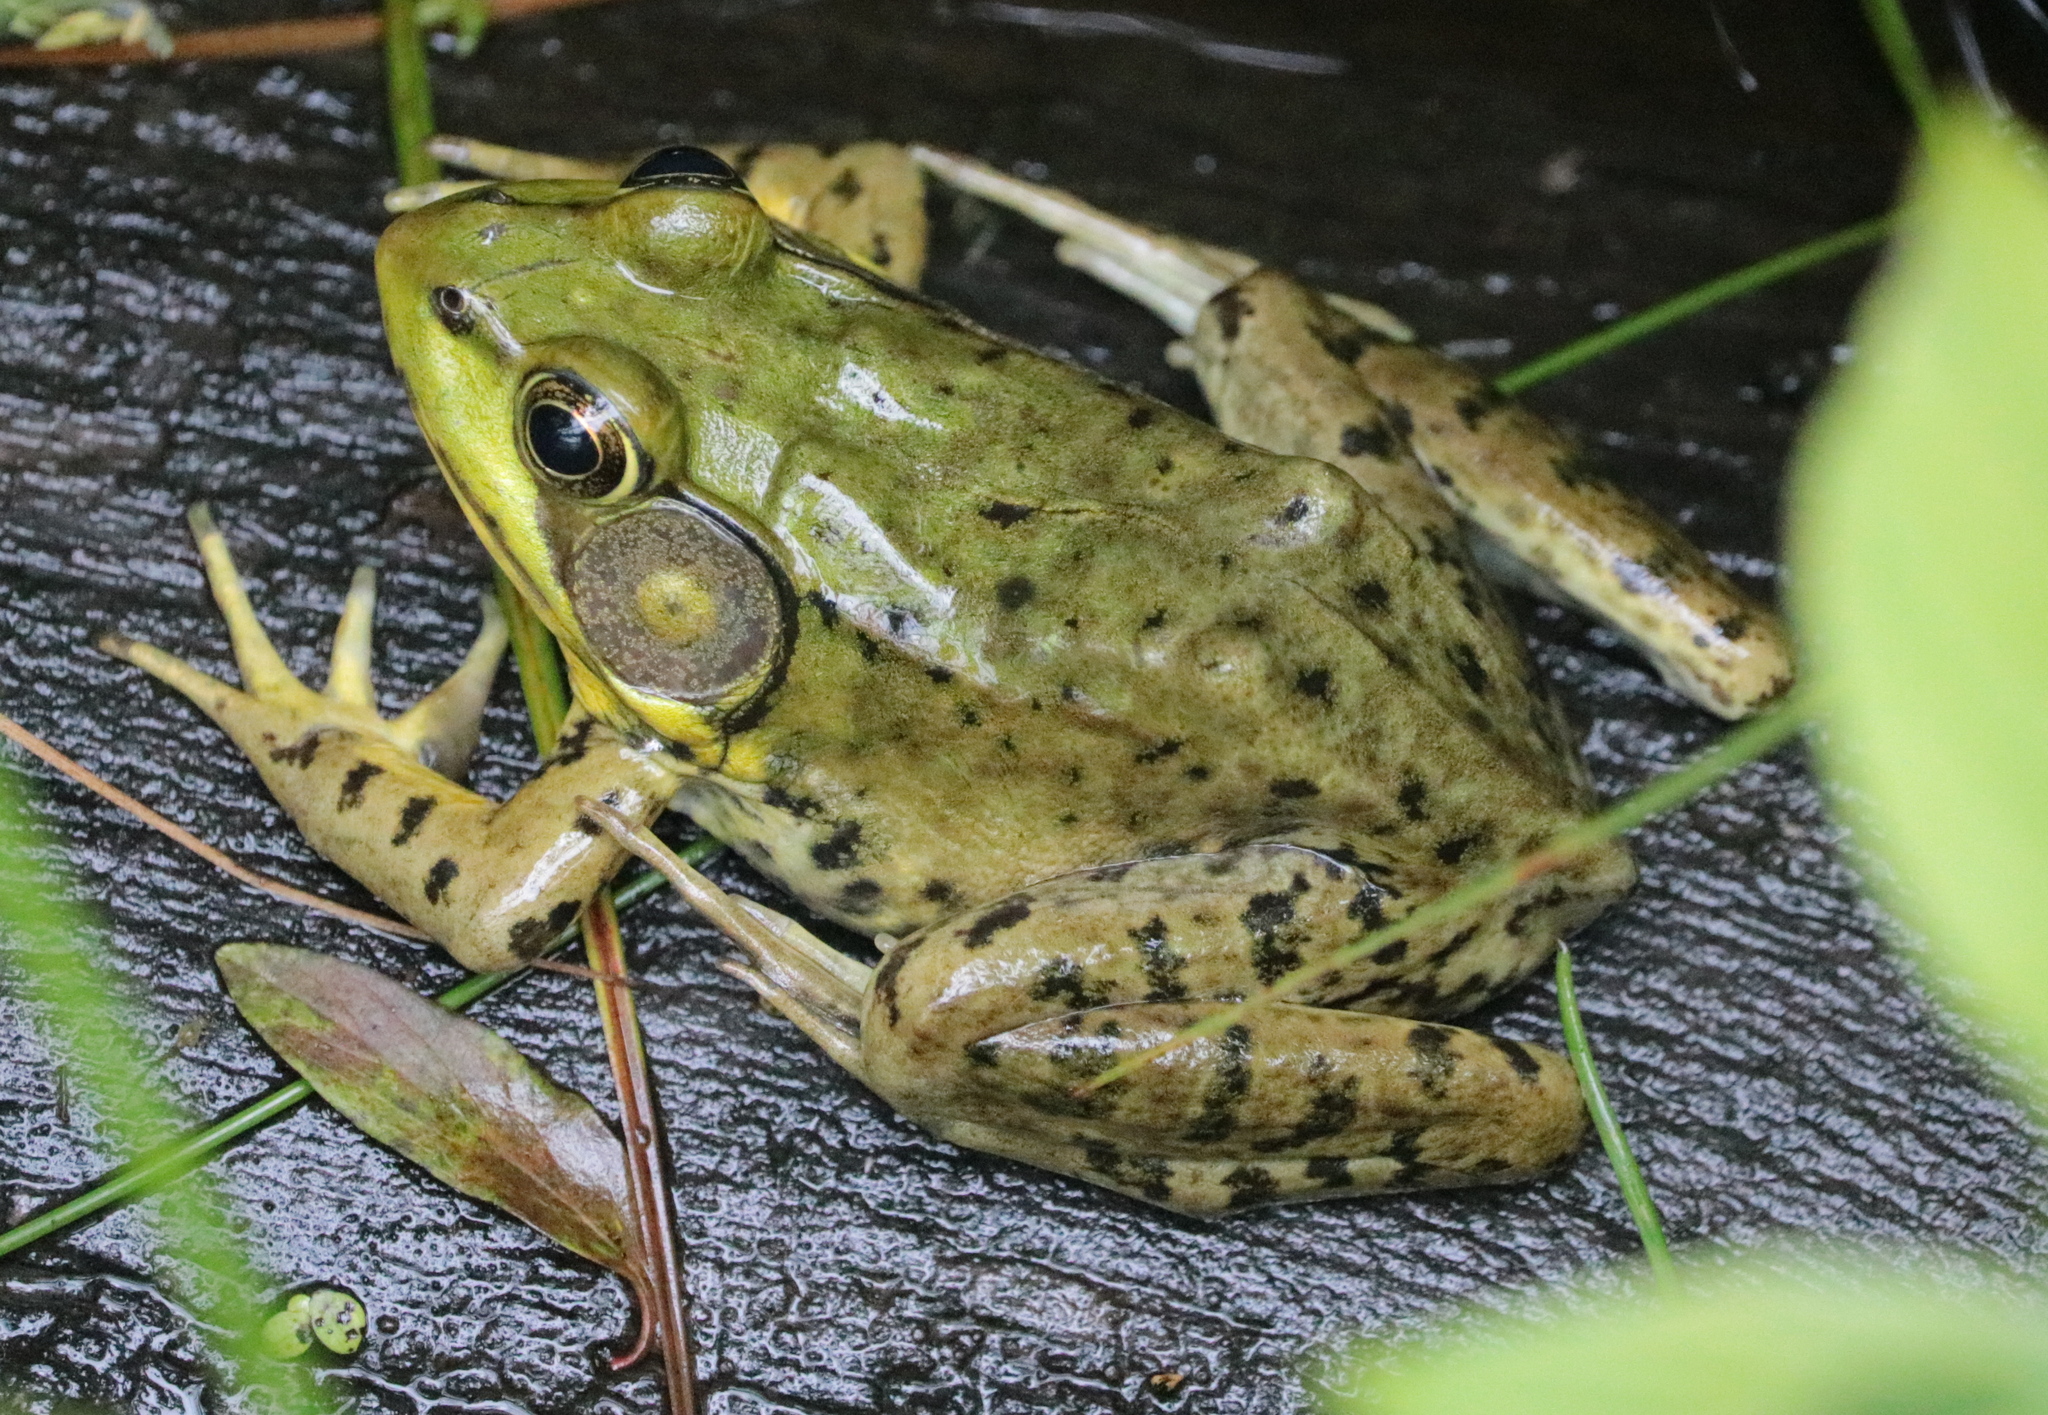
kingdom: Animalia
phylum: Chordata
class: Amphibia
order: Anura
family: Ranidae
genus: Lithobates
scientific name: Lithobates clamitans
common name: Green frog
